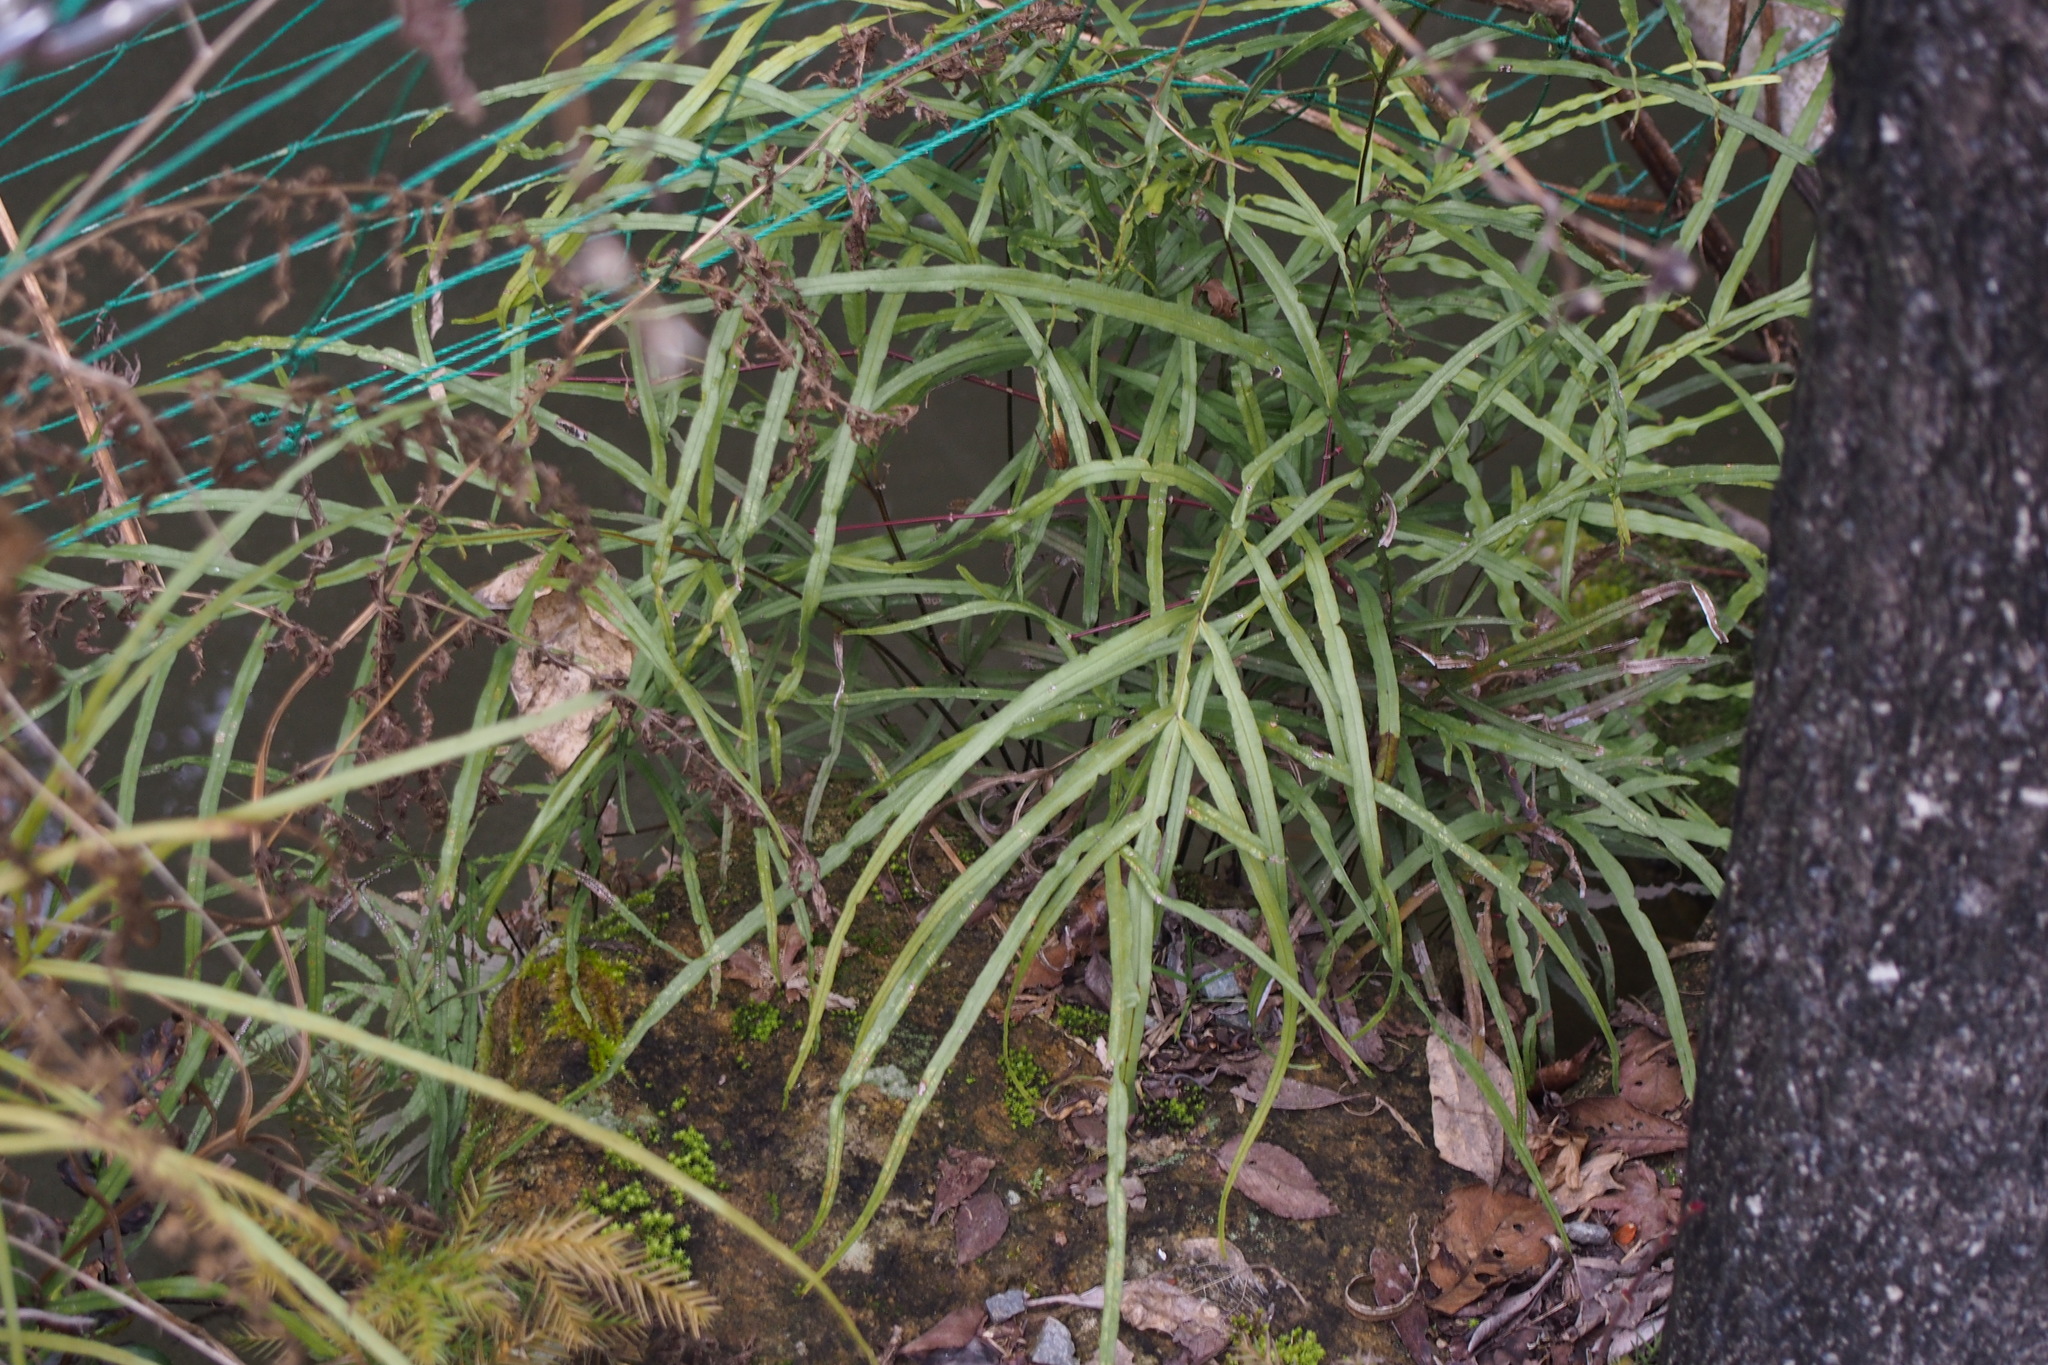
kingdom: Plantae
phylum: Tracheophyta
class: Polypodiopsida
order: Polypodiales
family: Pteridaceae
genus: Pteris
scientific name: Pteris multifida
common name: Spider brake
